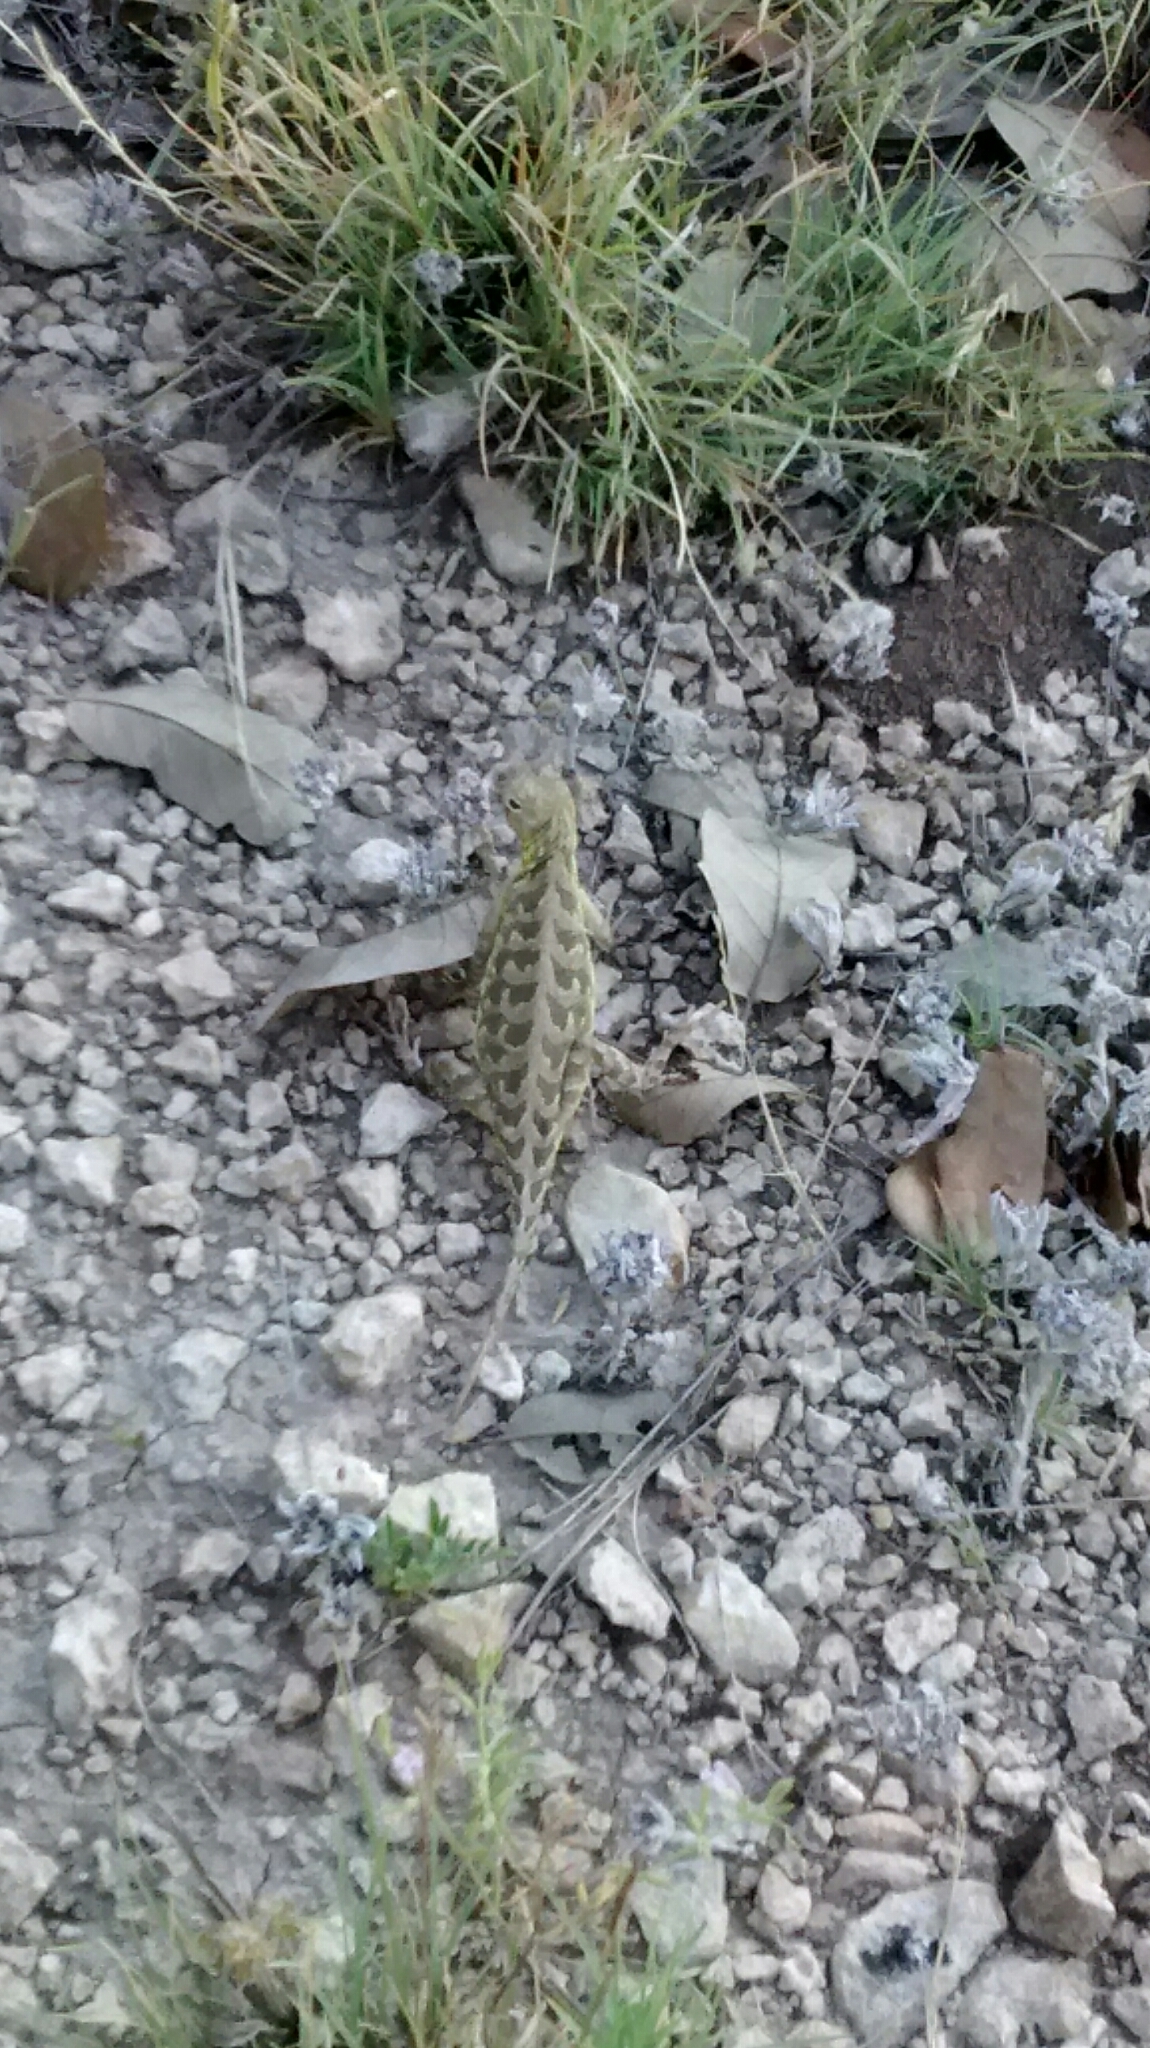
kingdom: Animalia
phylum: Chordata
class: Squamata
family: Phrynosomatidae
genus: Holbrookia
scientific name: Holbrookia lacerata
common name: Spot-tailed earless lizard
